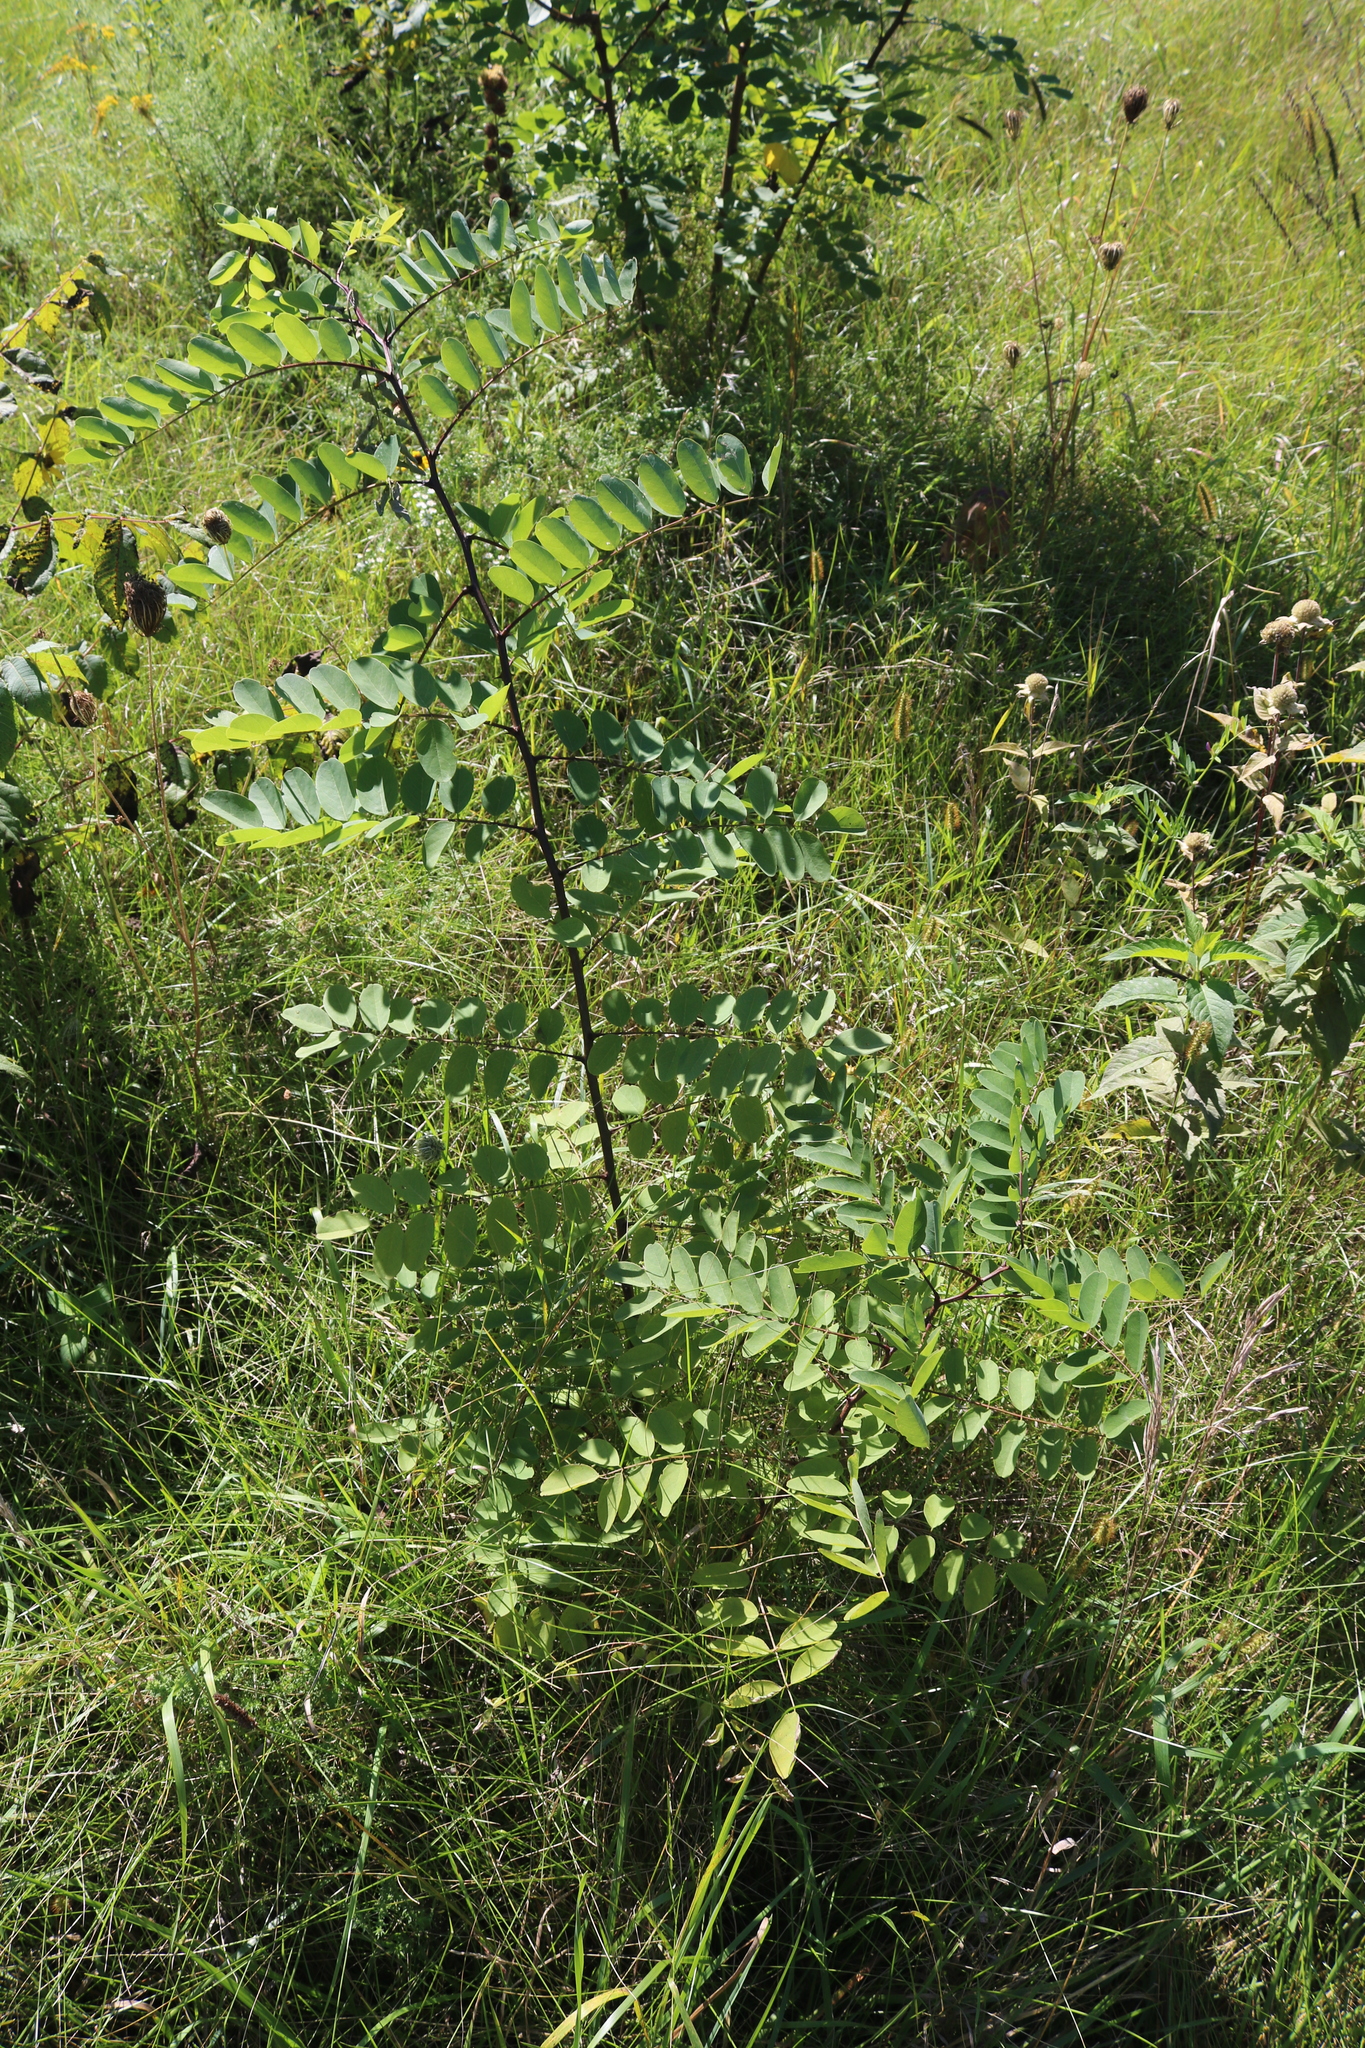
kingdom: Plantae
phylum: Tracheophyta
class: Magnoliopsida
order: Fabales
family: Fabaceae
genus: Robinia
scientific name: Robinia pseudoacacia
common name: Black locust
